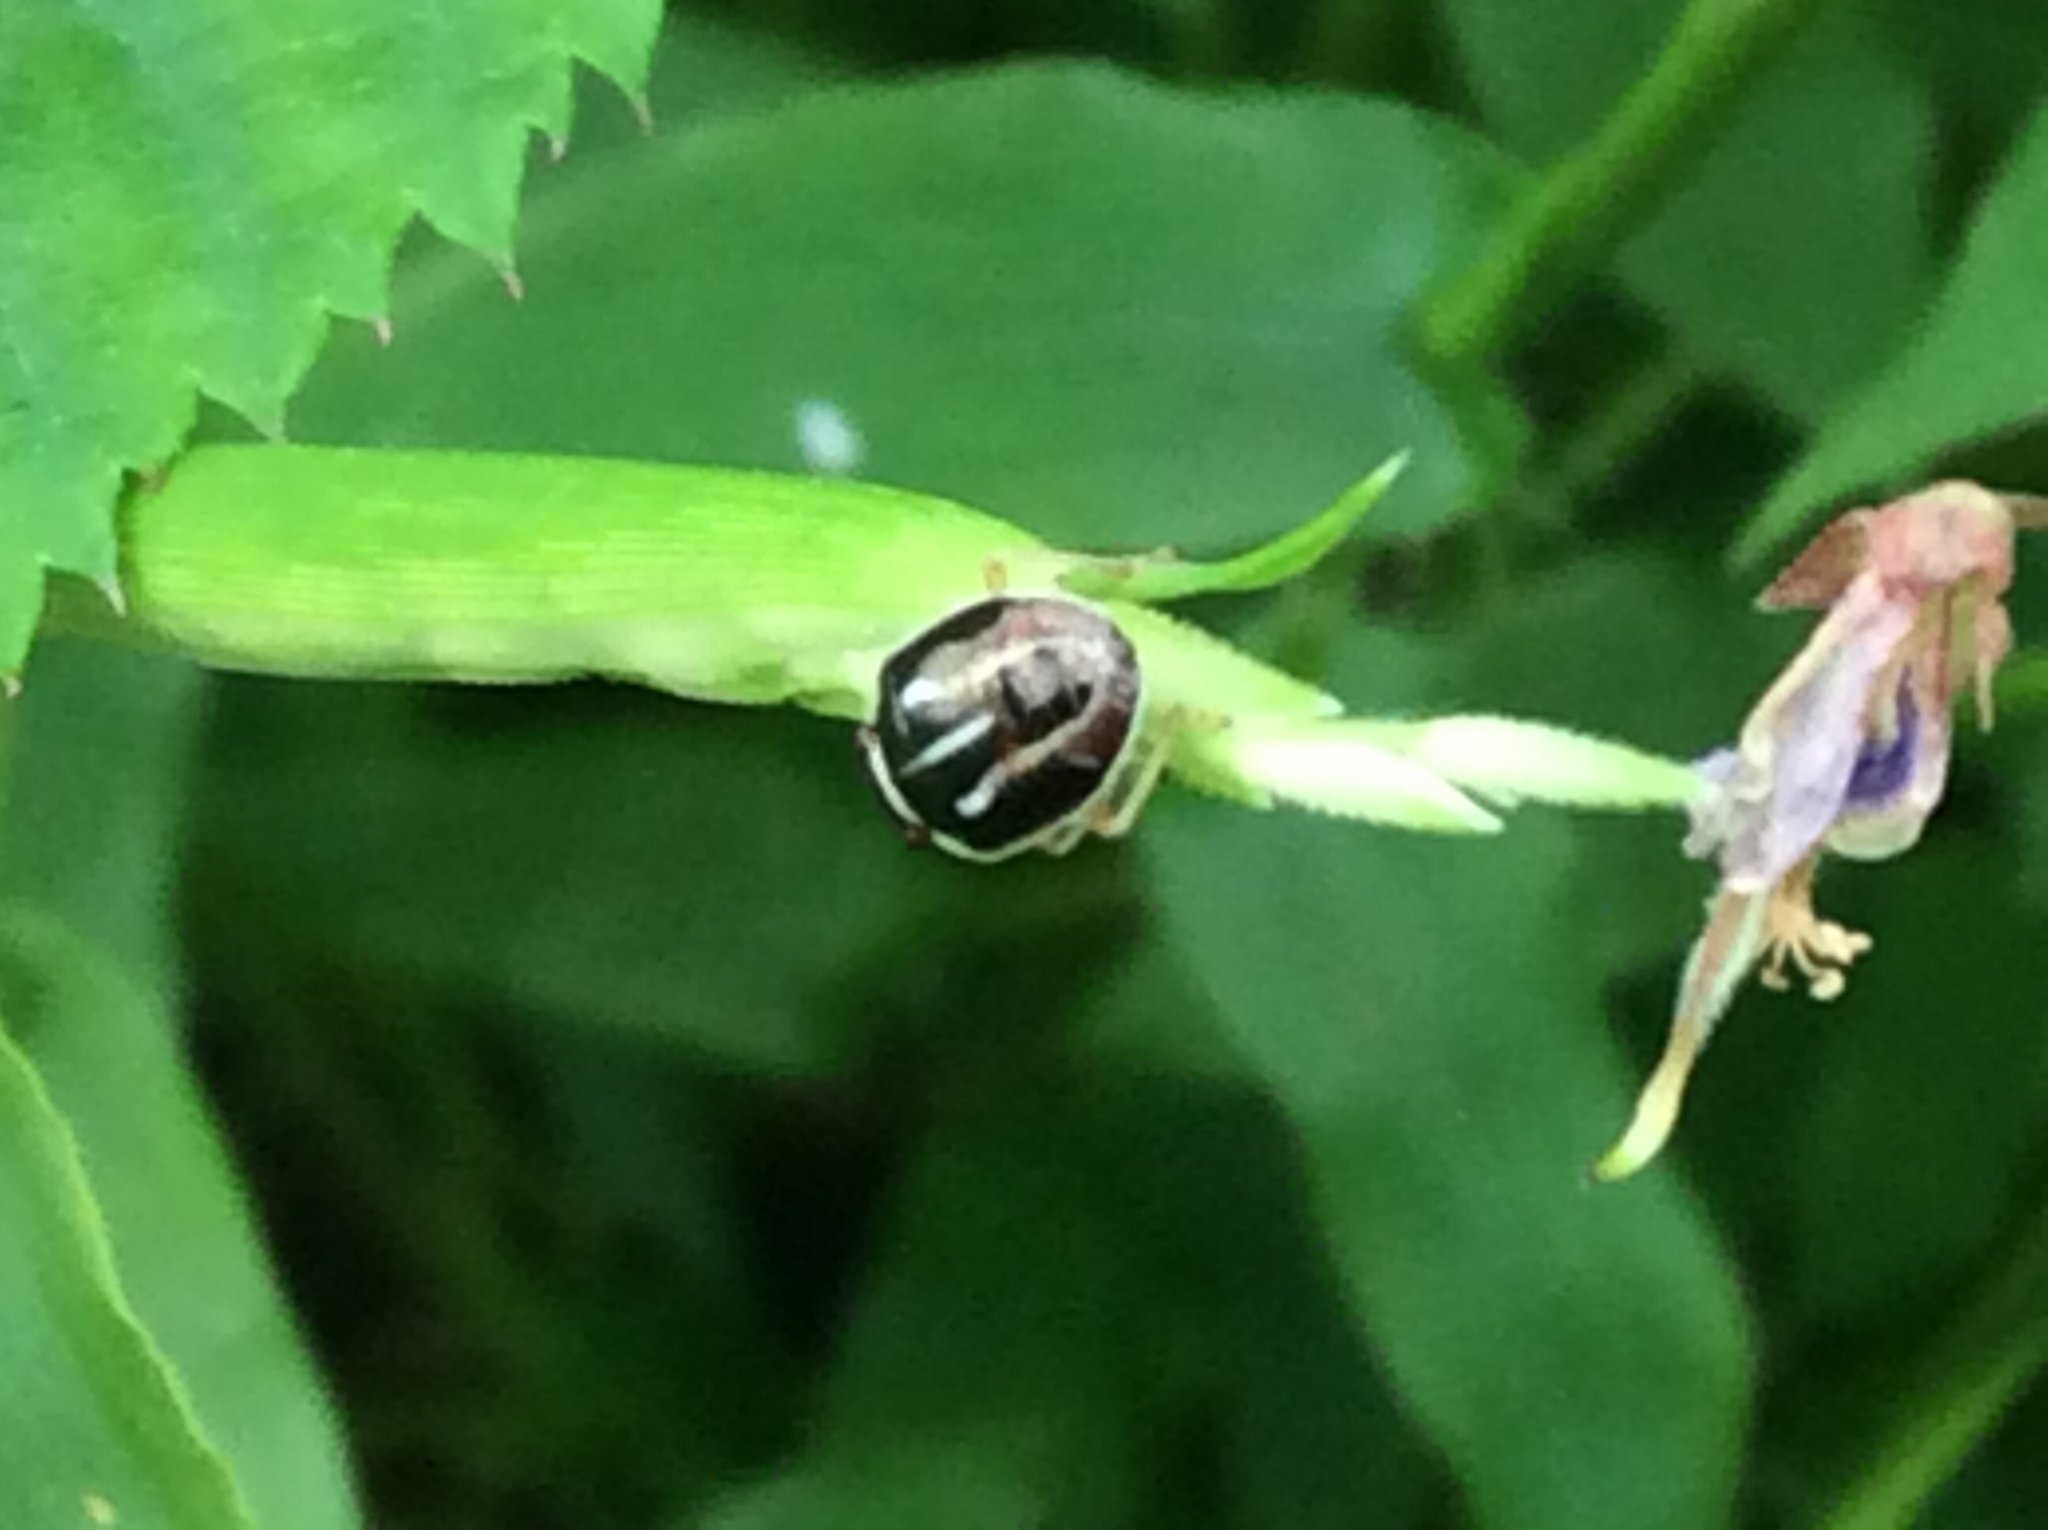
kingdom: Animalia
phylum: Arthropoda
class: Insecta
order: Hemiptera
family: Pentatomidae
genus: Mormidea
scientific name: Mormidea lugens
